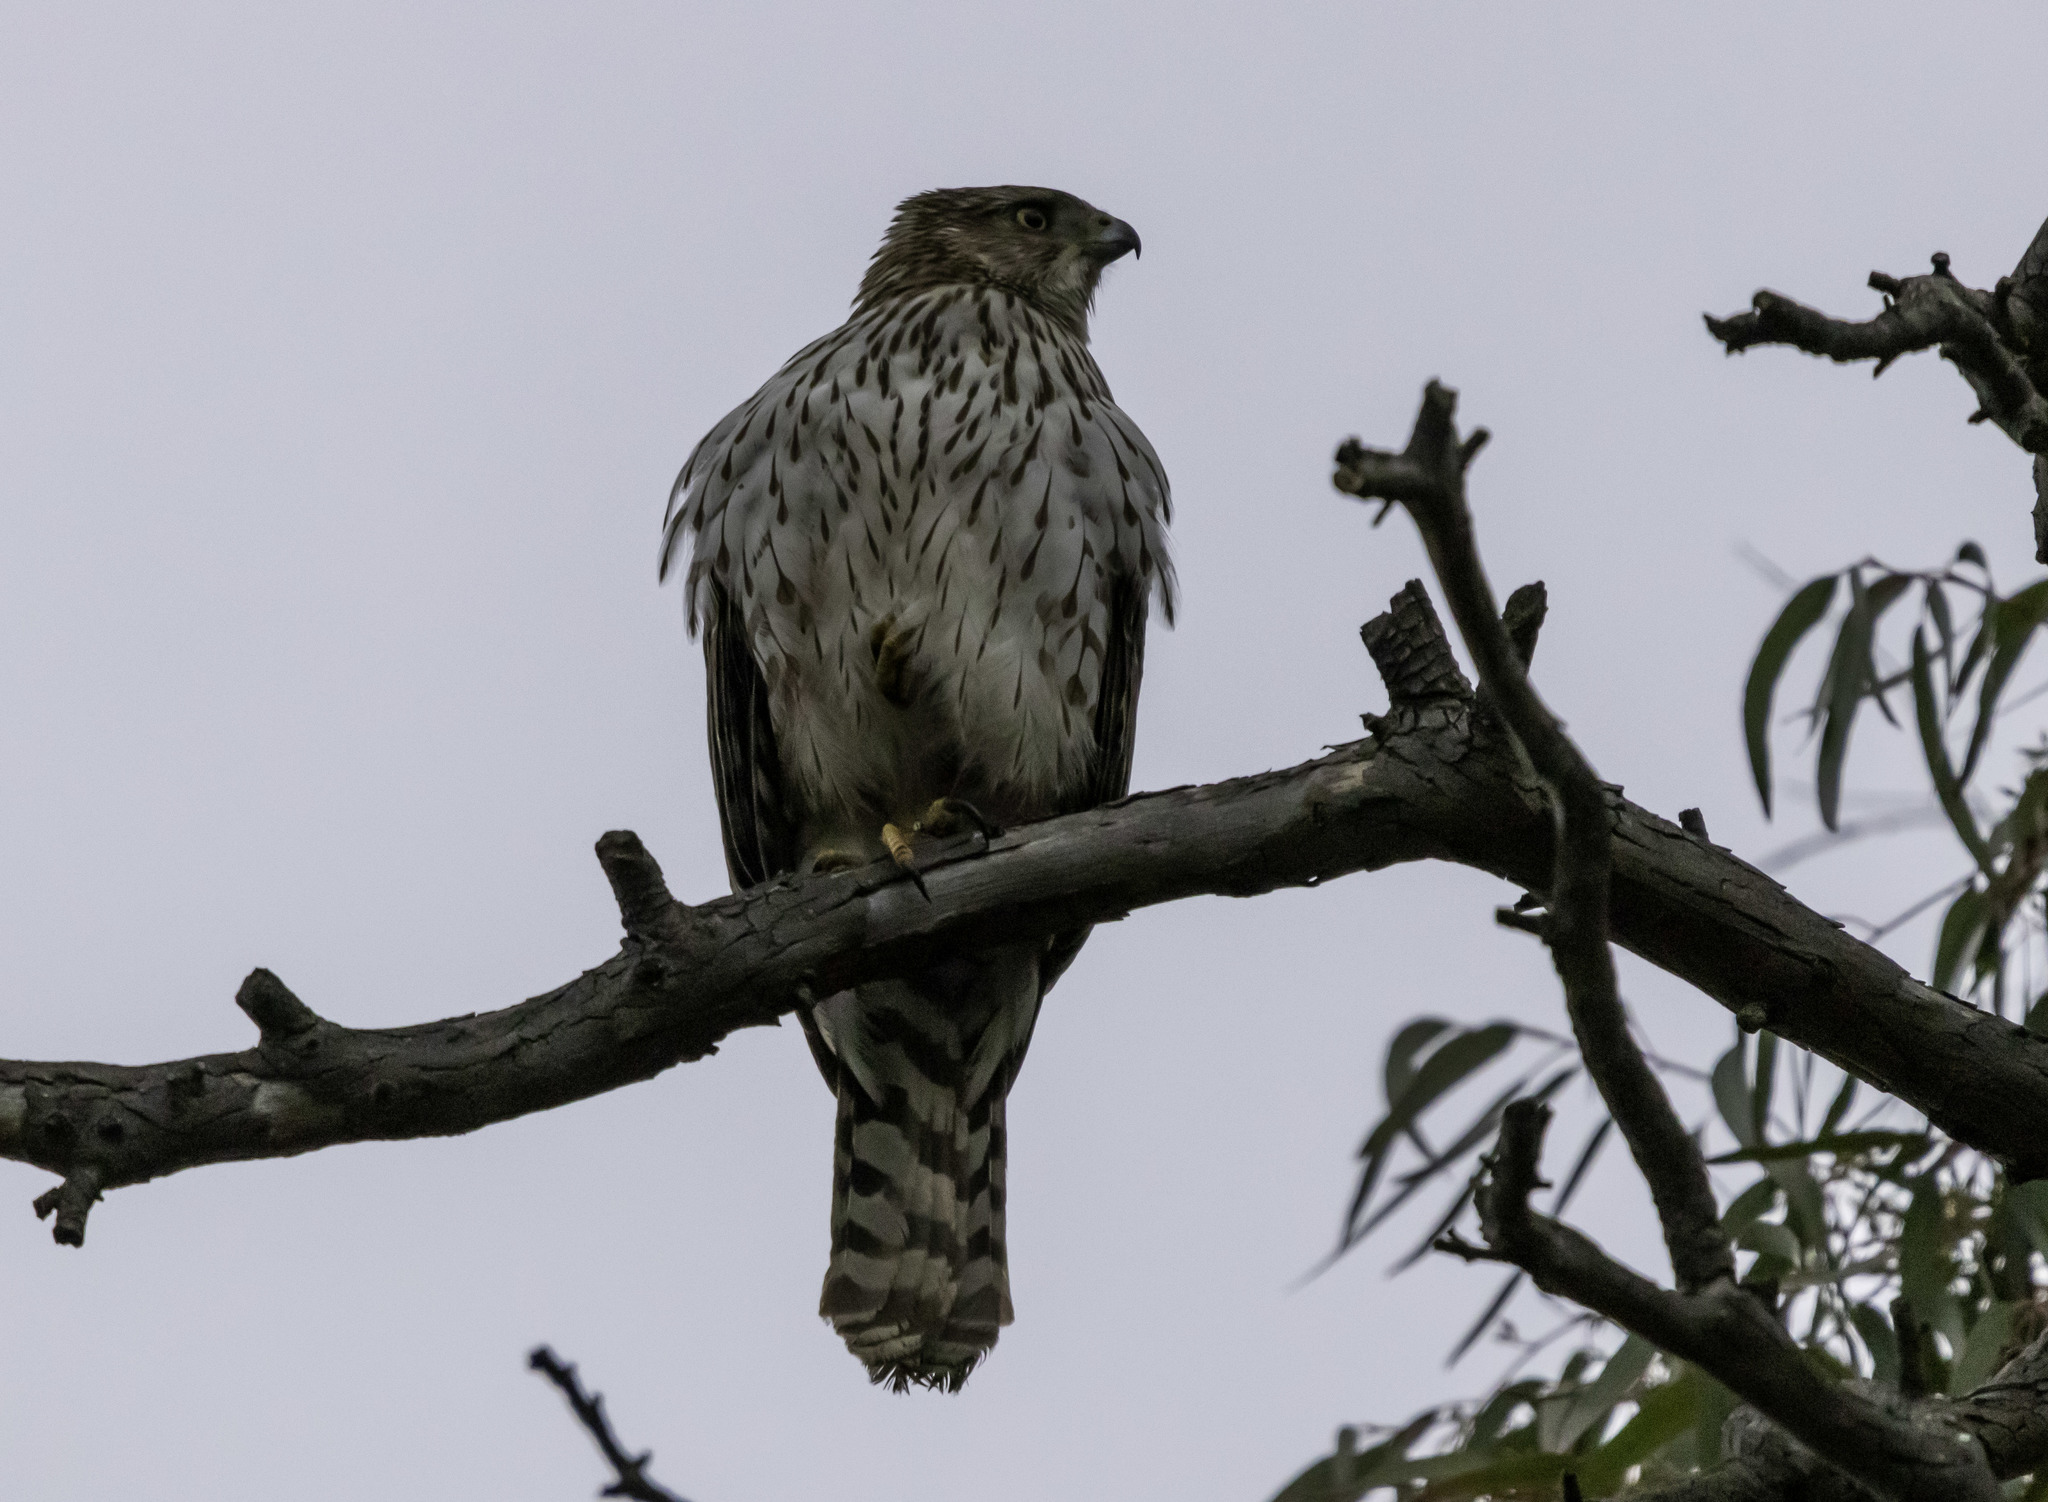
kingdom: Animalia
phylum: Chordata
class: Aves
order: Accipitriformes
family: Accipitridae
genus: Accipiter
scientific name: Accipiter cooperii
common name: Cooper's hawk
